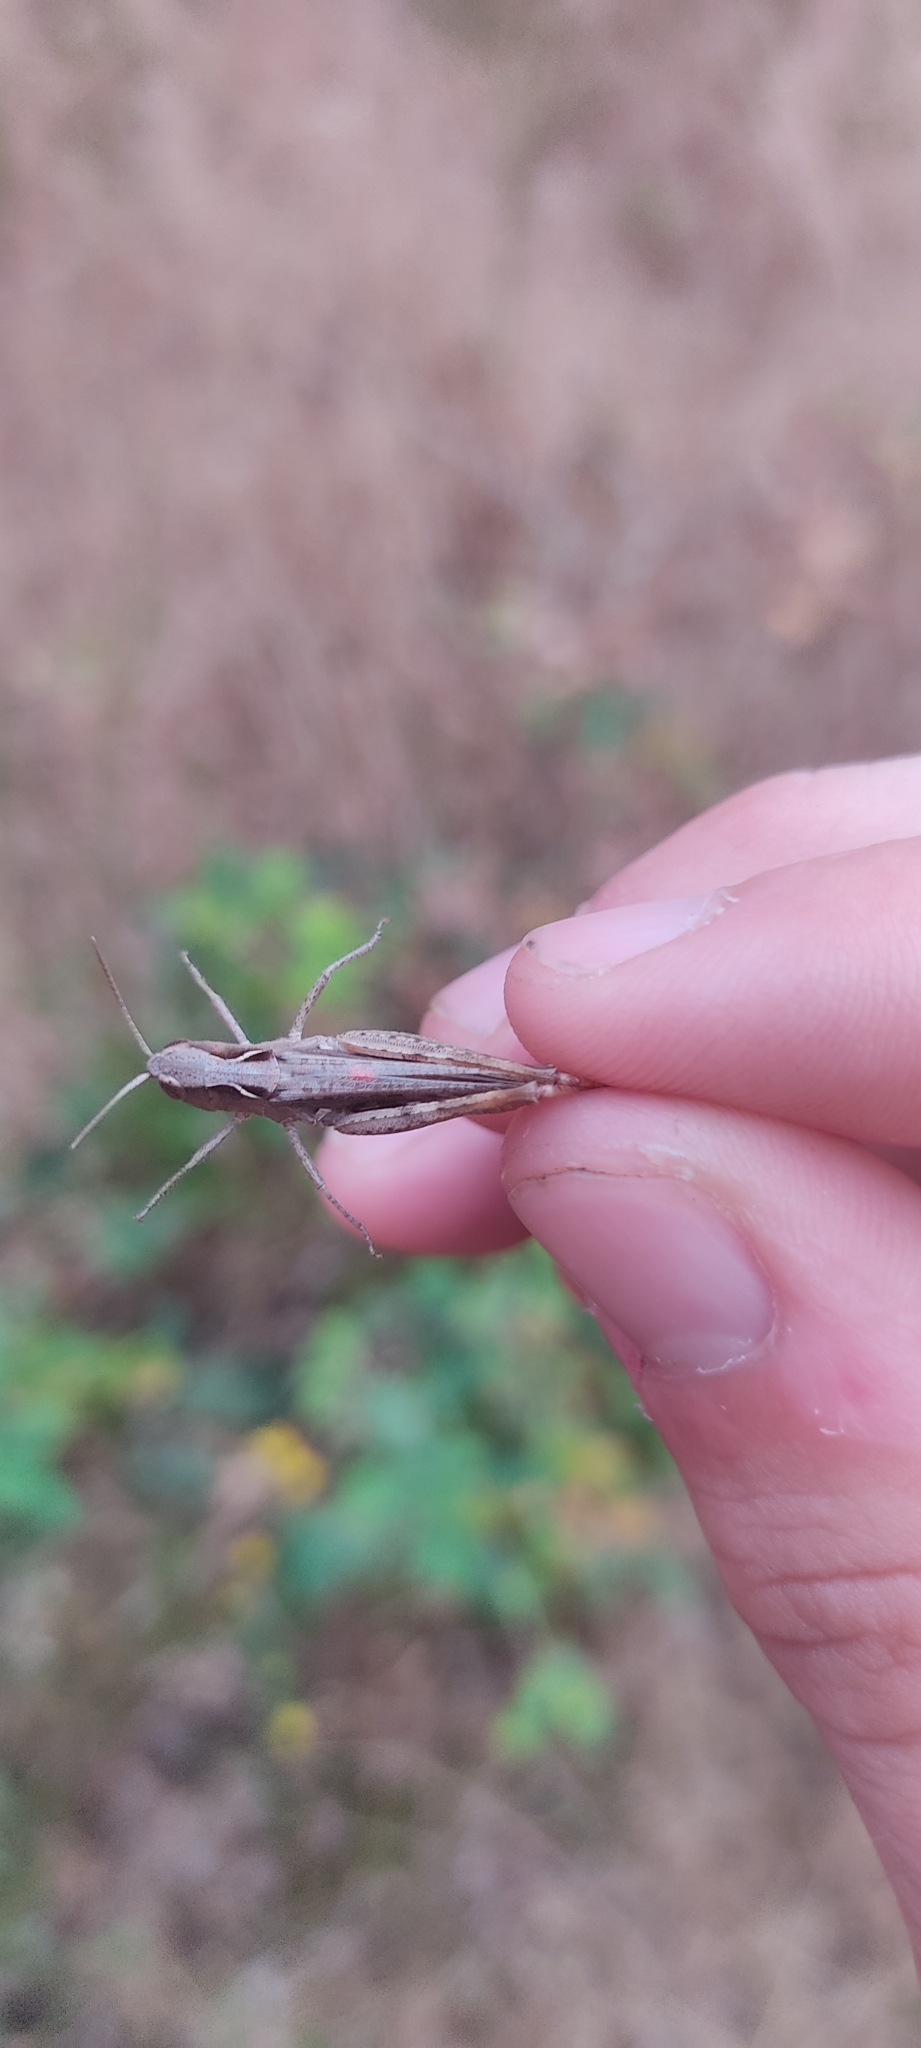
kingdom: Animalia
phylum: Arthropoda
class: Insecta
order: Orthoptera
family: Acrididae
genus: Chorthippus
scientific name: Chorthippus vagans
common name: Heath grasshopper
